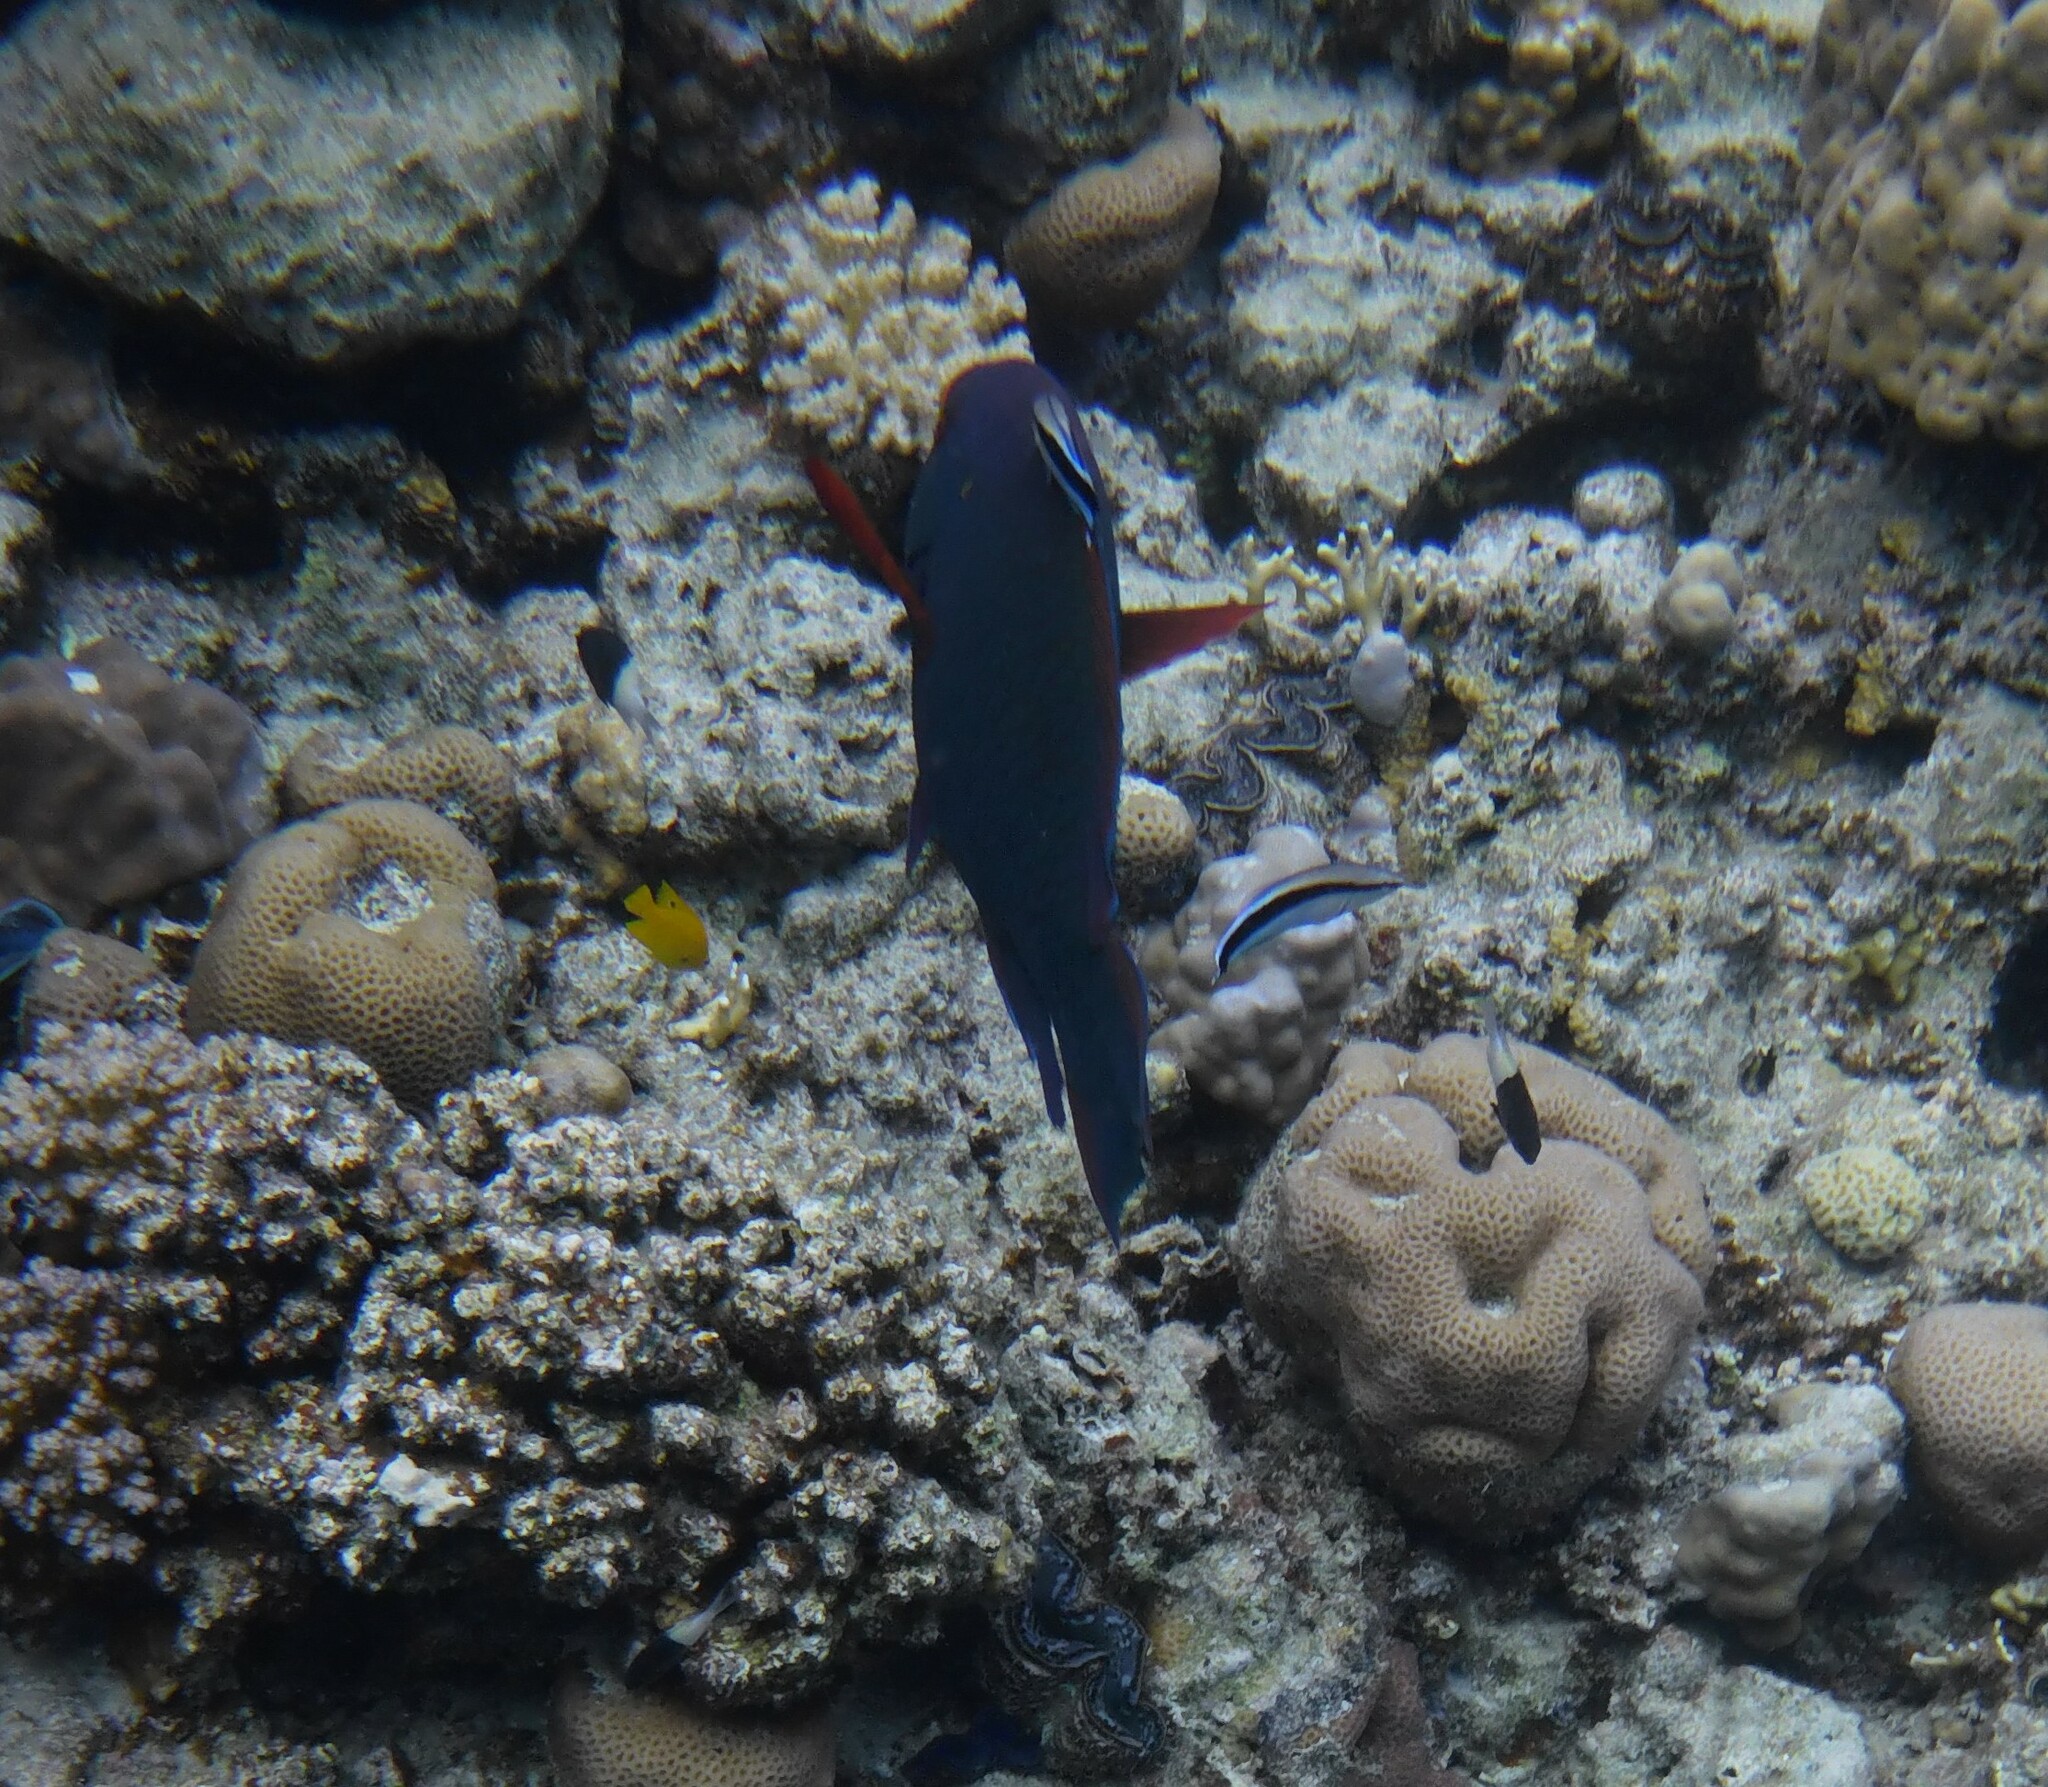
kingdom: Animalia
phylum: Chordata
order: Perciformes
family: Scaridae
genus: Scarus
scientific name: Scarus niger
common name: Dusky parrotfish
